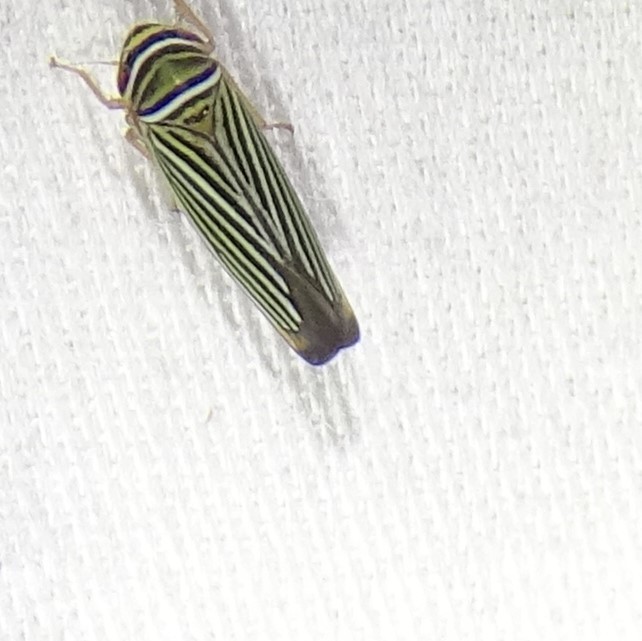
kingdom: Animalia
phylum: Arthropoda
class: Insecta
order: Hemiptera
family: Cicadellidae
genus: Tylozygus
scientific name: Tylozygus bifidus
